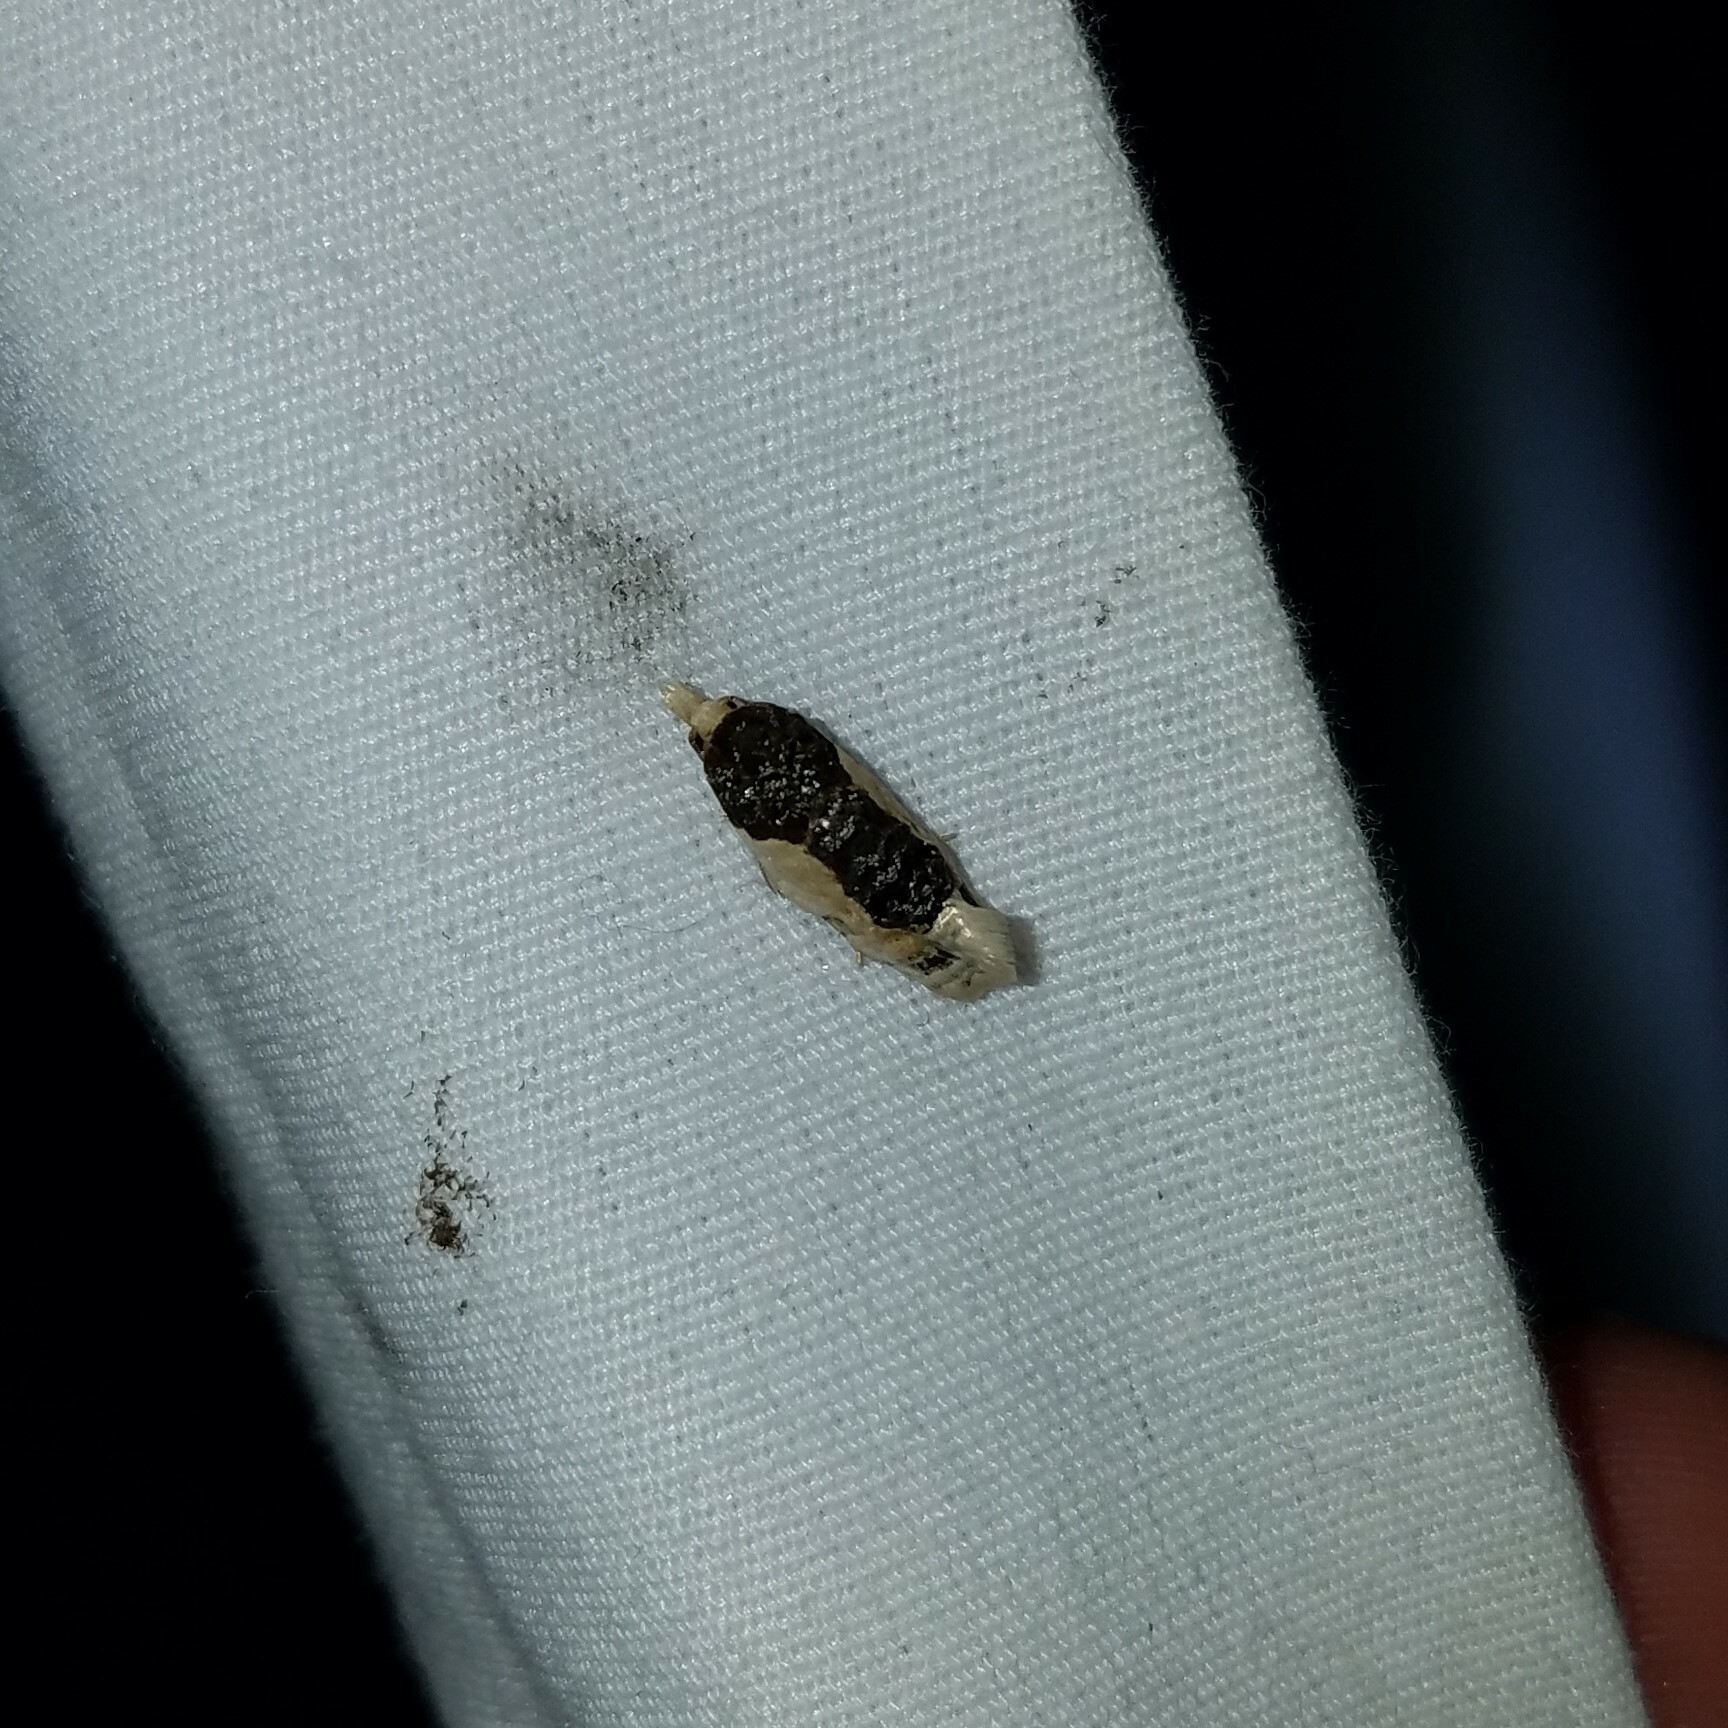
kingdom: Animalia
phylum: Arthropoda
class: Insecta
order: Lepidoptera
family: Tortricidae
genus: Henricus
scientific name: Henricus edwardsiana
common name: Contrasting henricus moth
